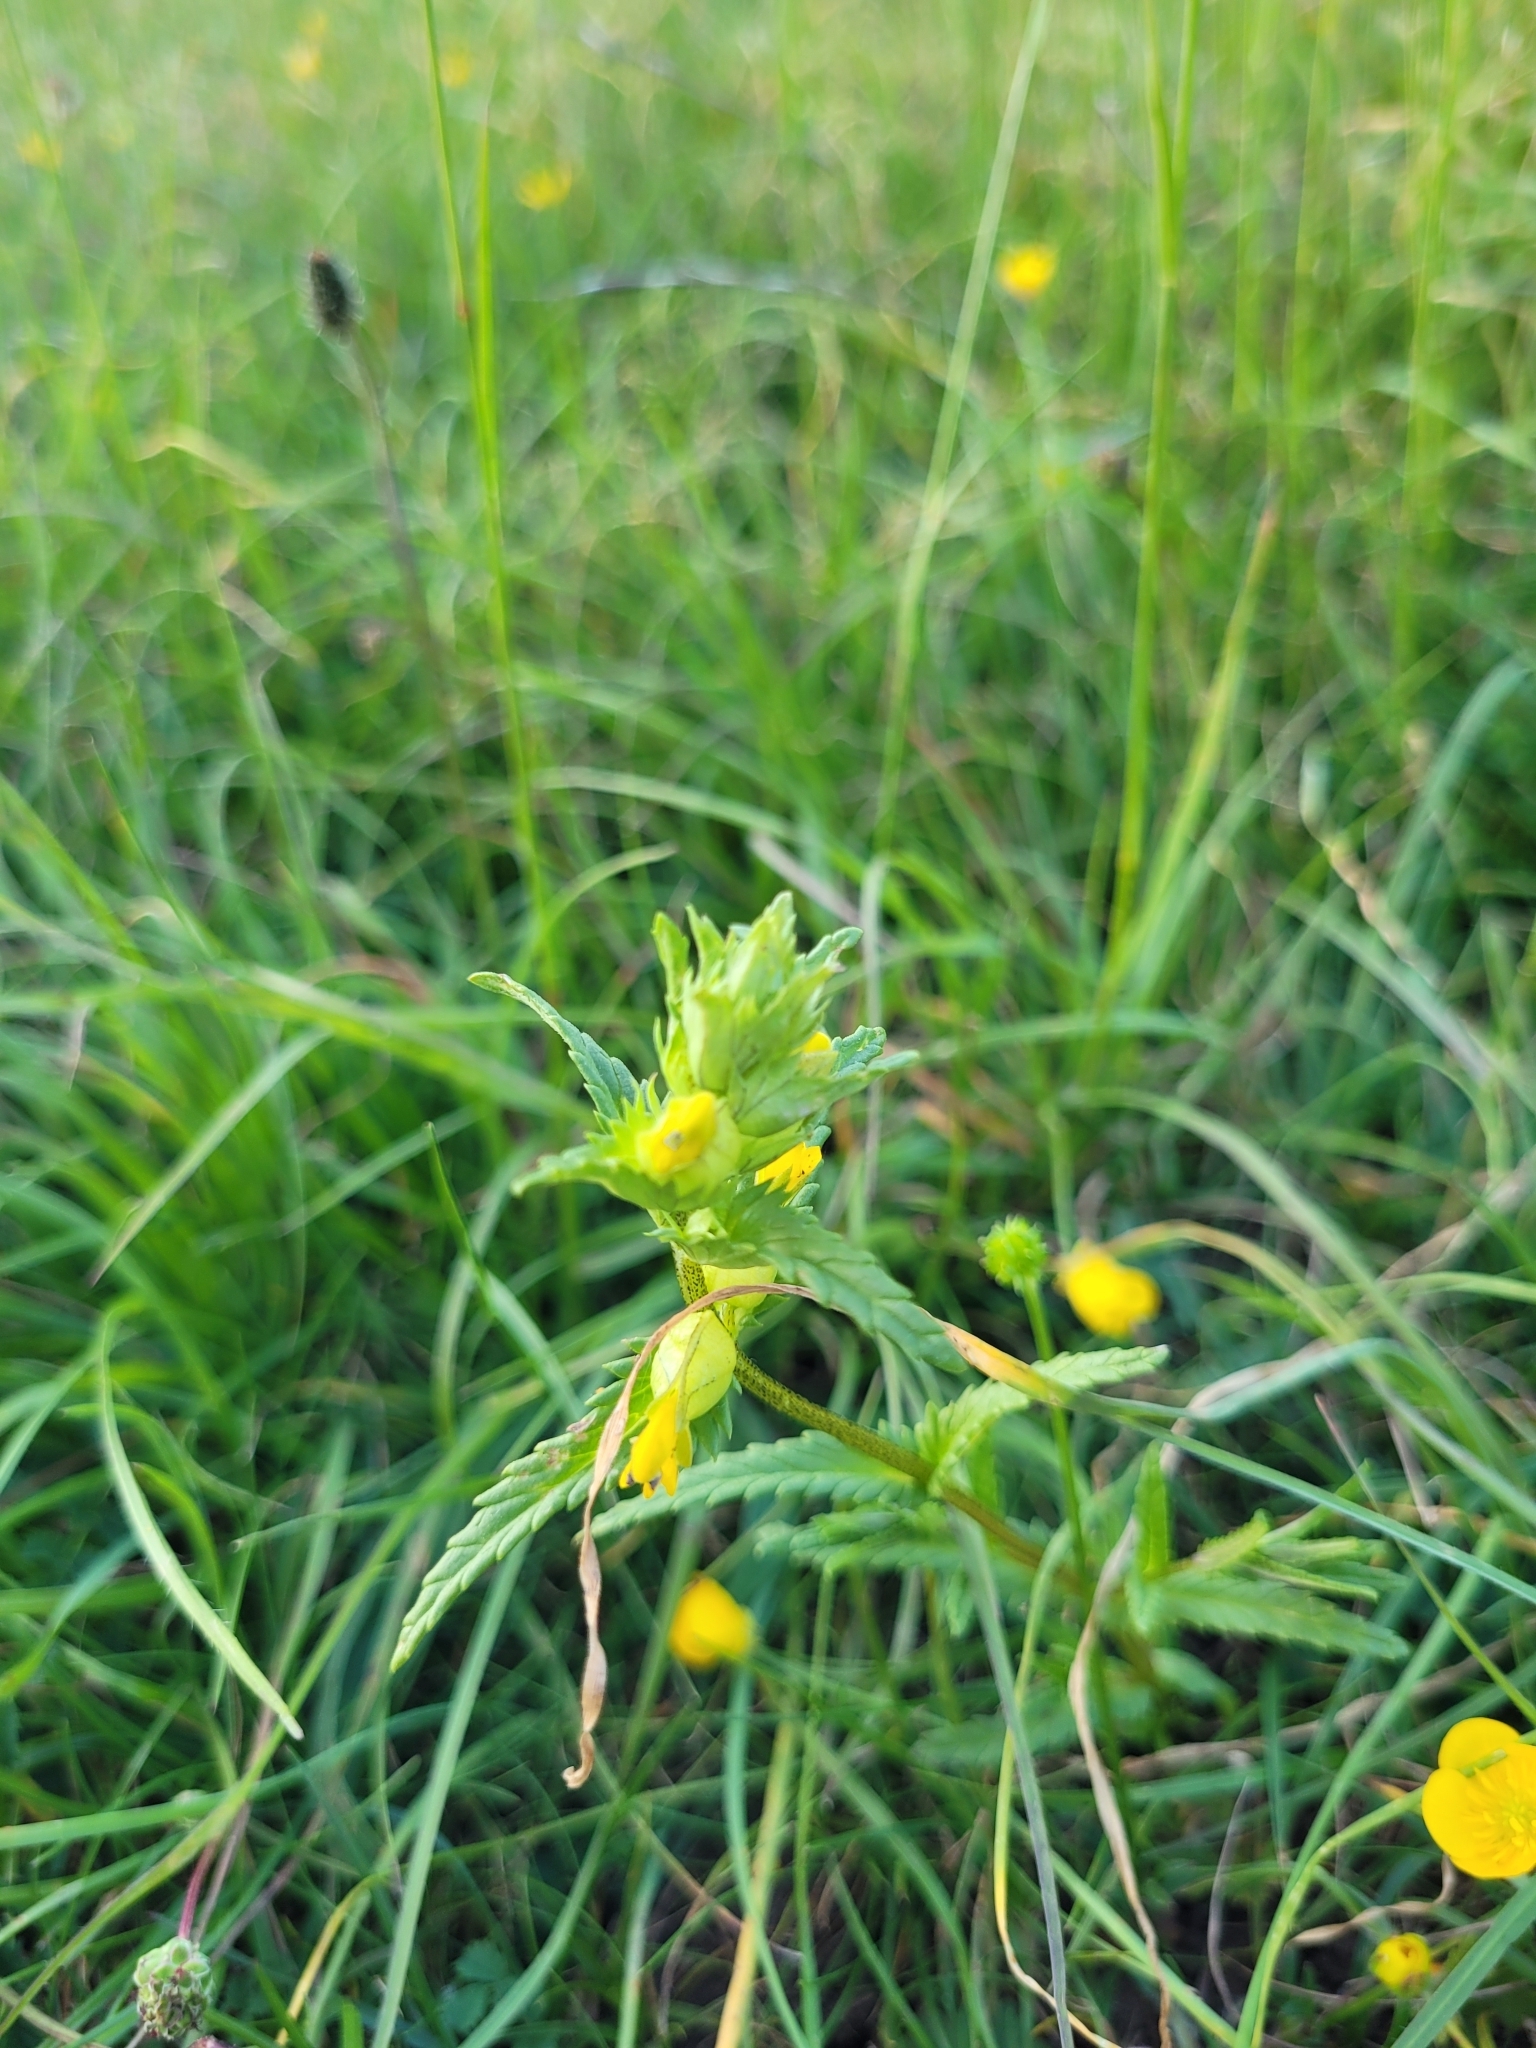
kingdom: Plantae
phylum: Tracheophyta
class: Magnoliopsida
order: Lamiales
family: Orobanchaceae
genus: Rhinanthus
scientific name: Rhinanthus minor
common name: Yellow-rattle
